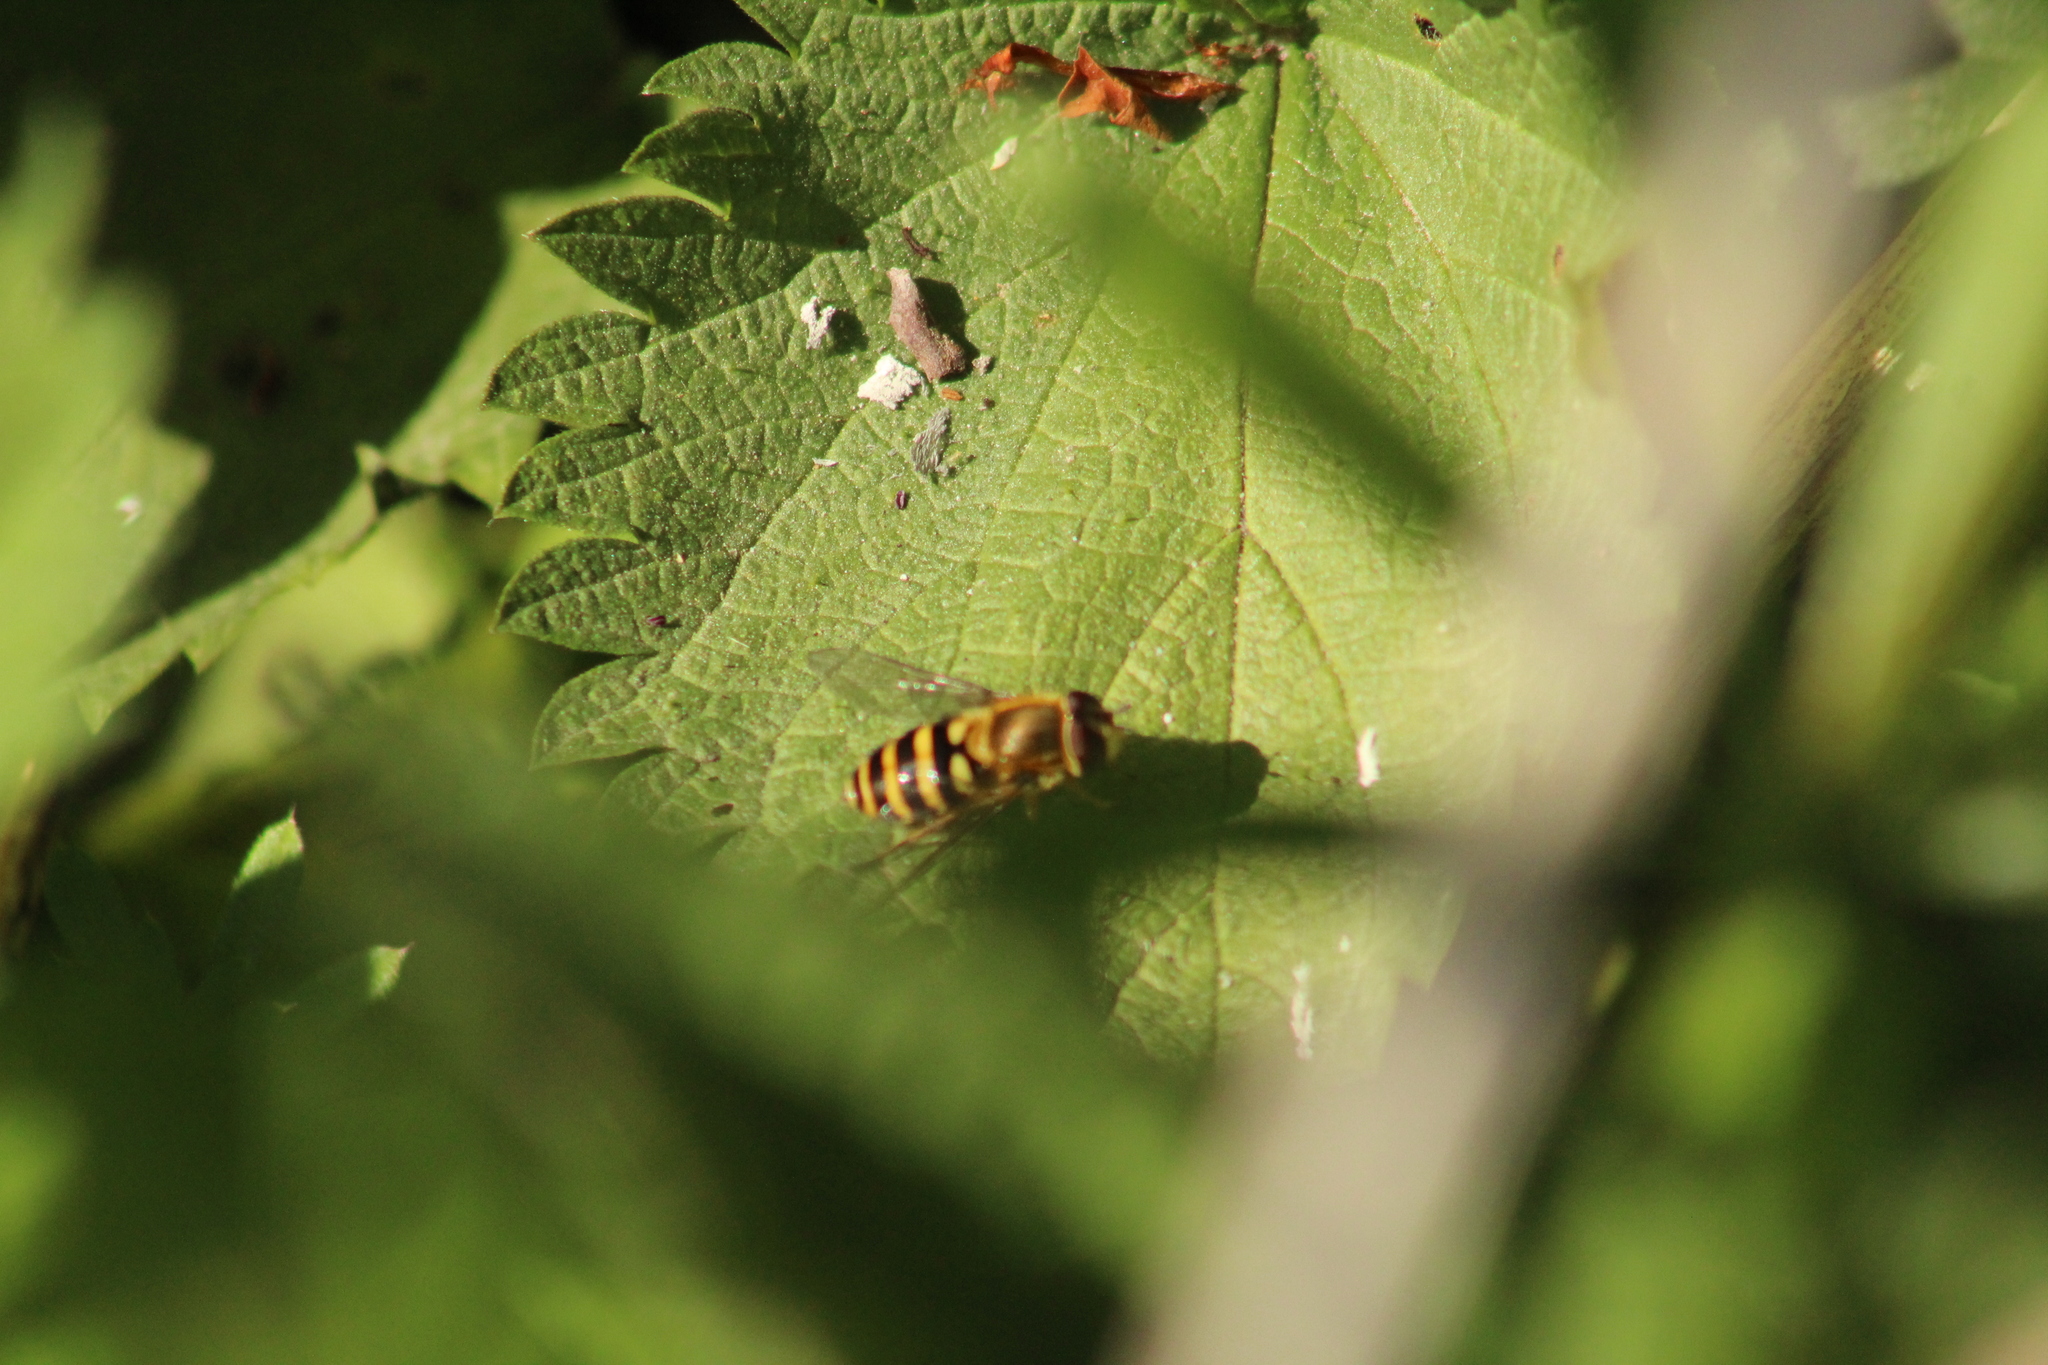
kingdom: Animalia
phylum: Arthropoda
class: Insecta
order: Diptera
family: Syrphidae
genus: Syrphus
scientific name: Syrphus
